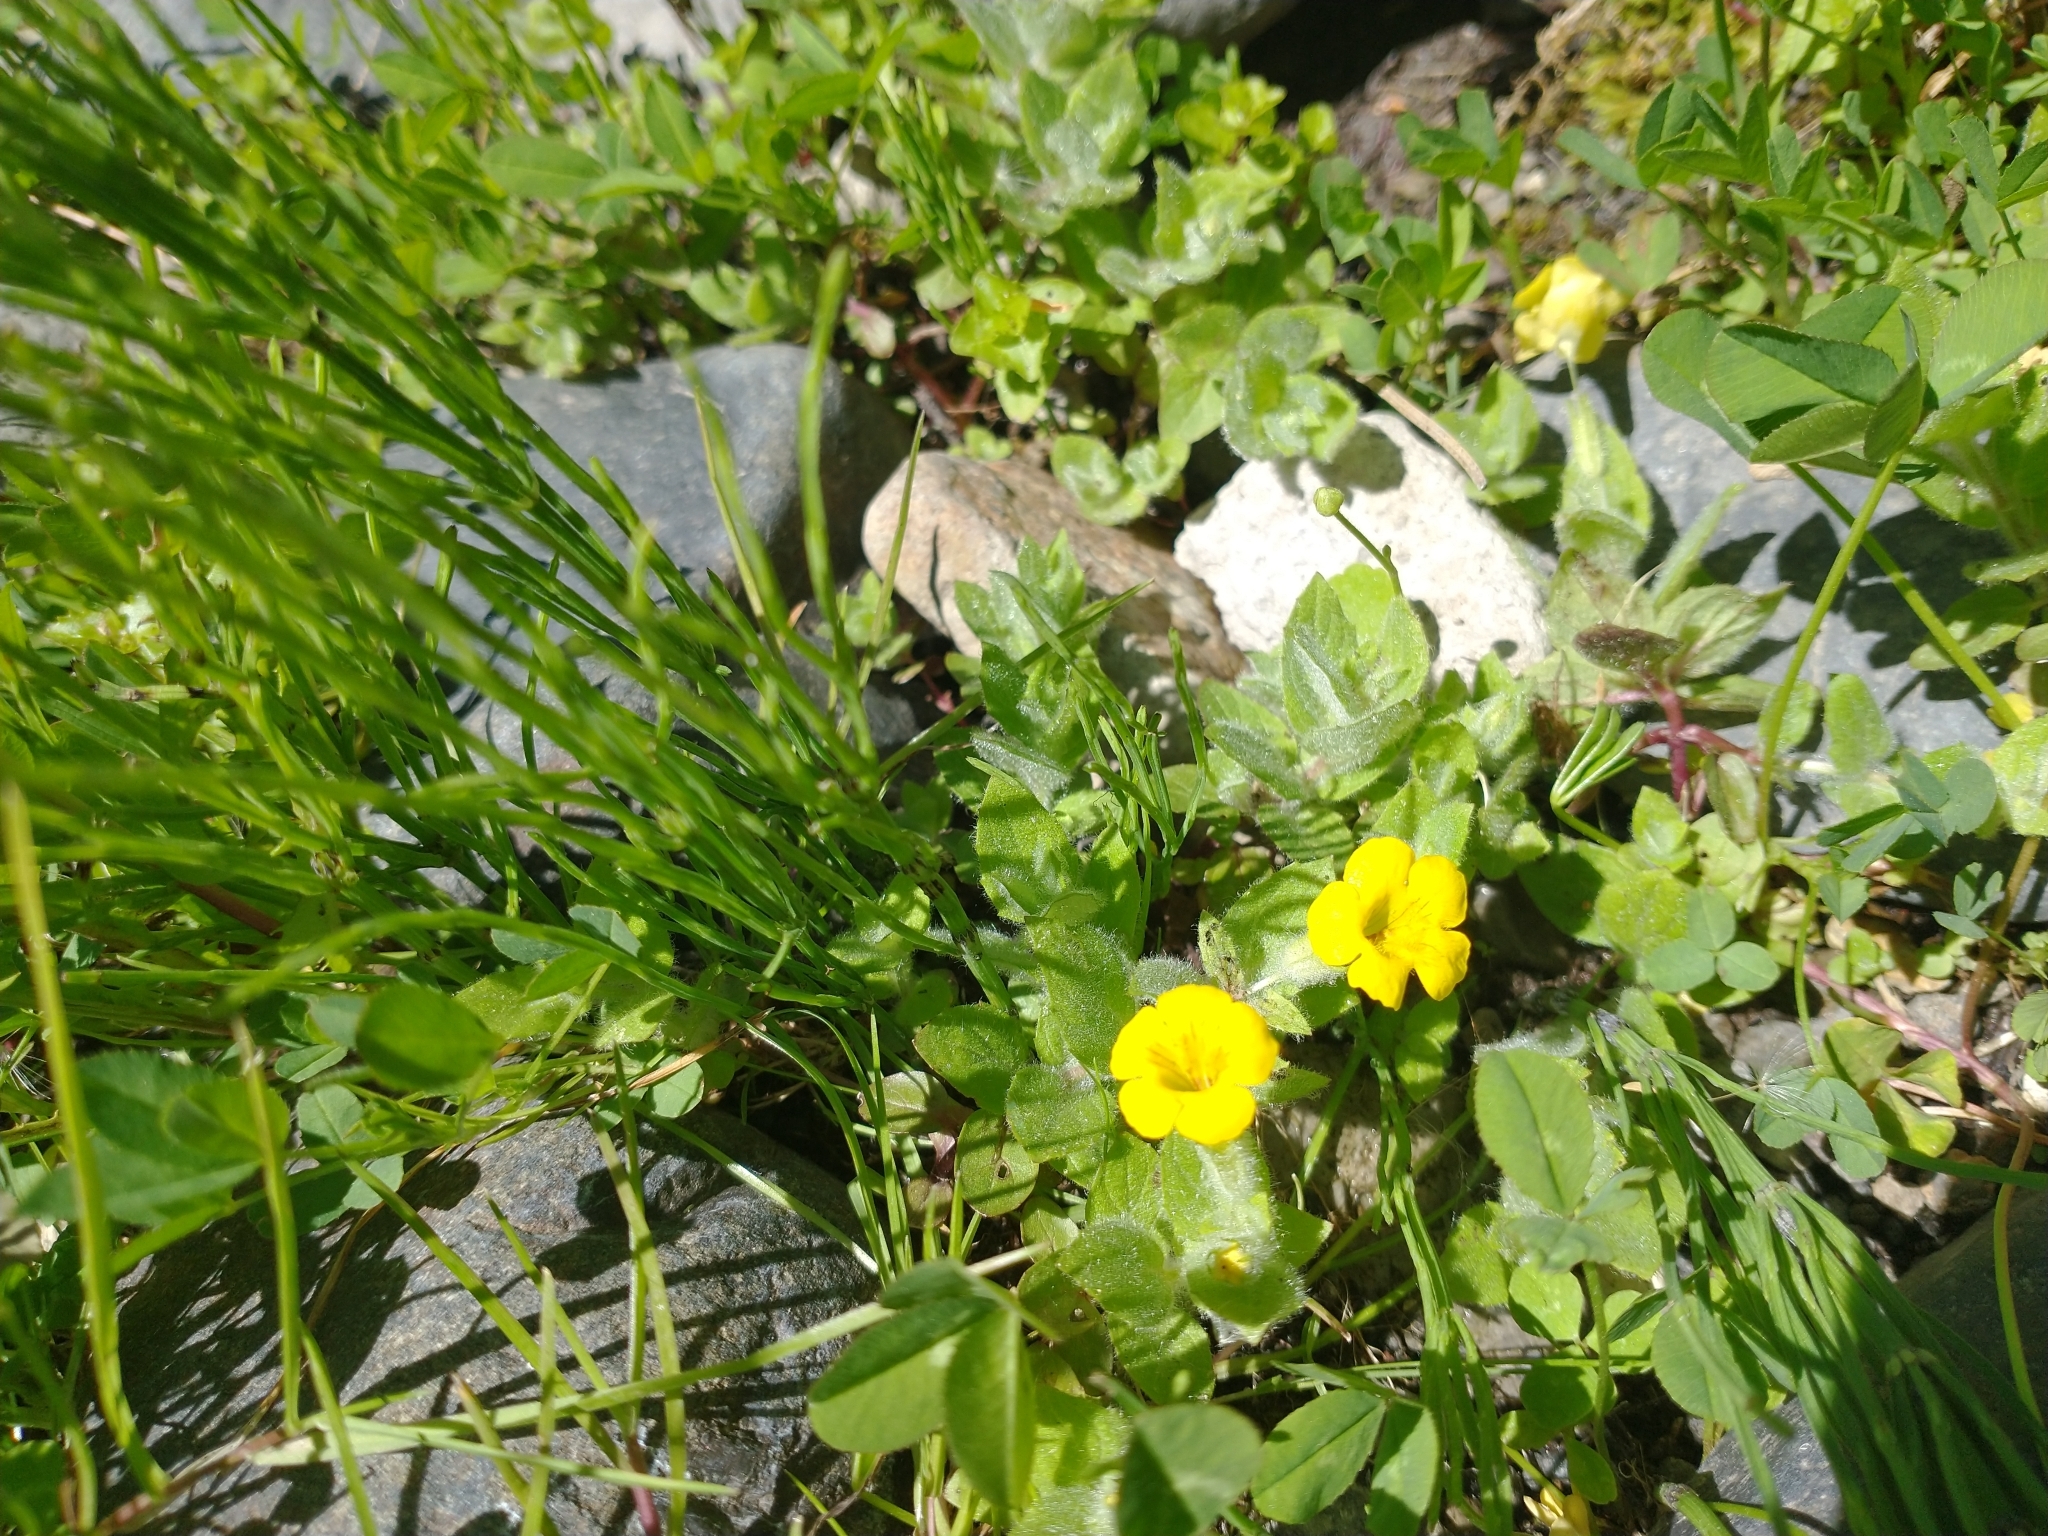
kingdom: Plantae
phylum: Tracheophyta
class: Magnoliopsida
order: Lamiales
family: Phrymaceae
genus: Erythranthe
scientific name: Erythranthe moschata
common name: Muskflower
